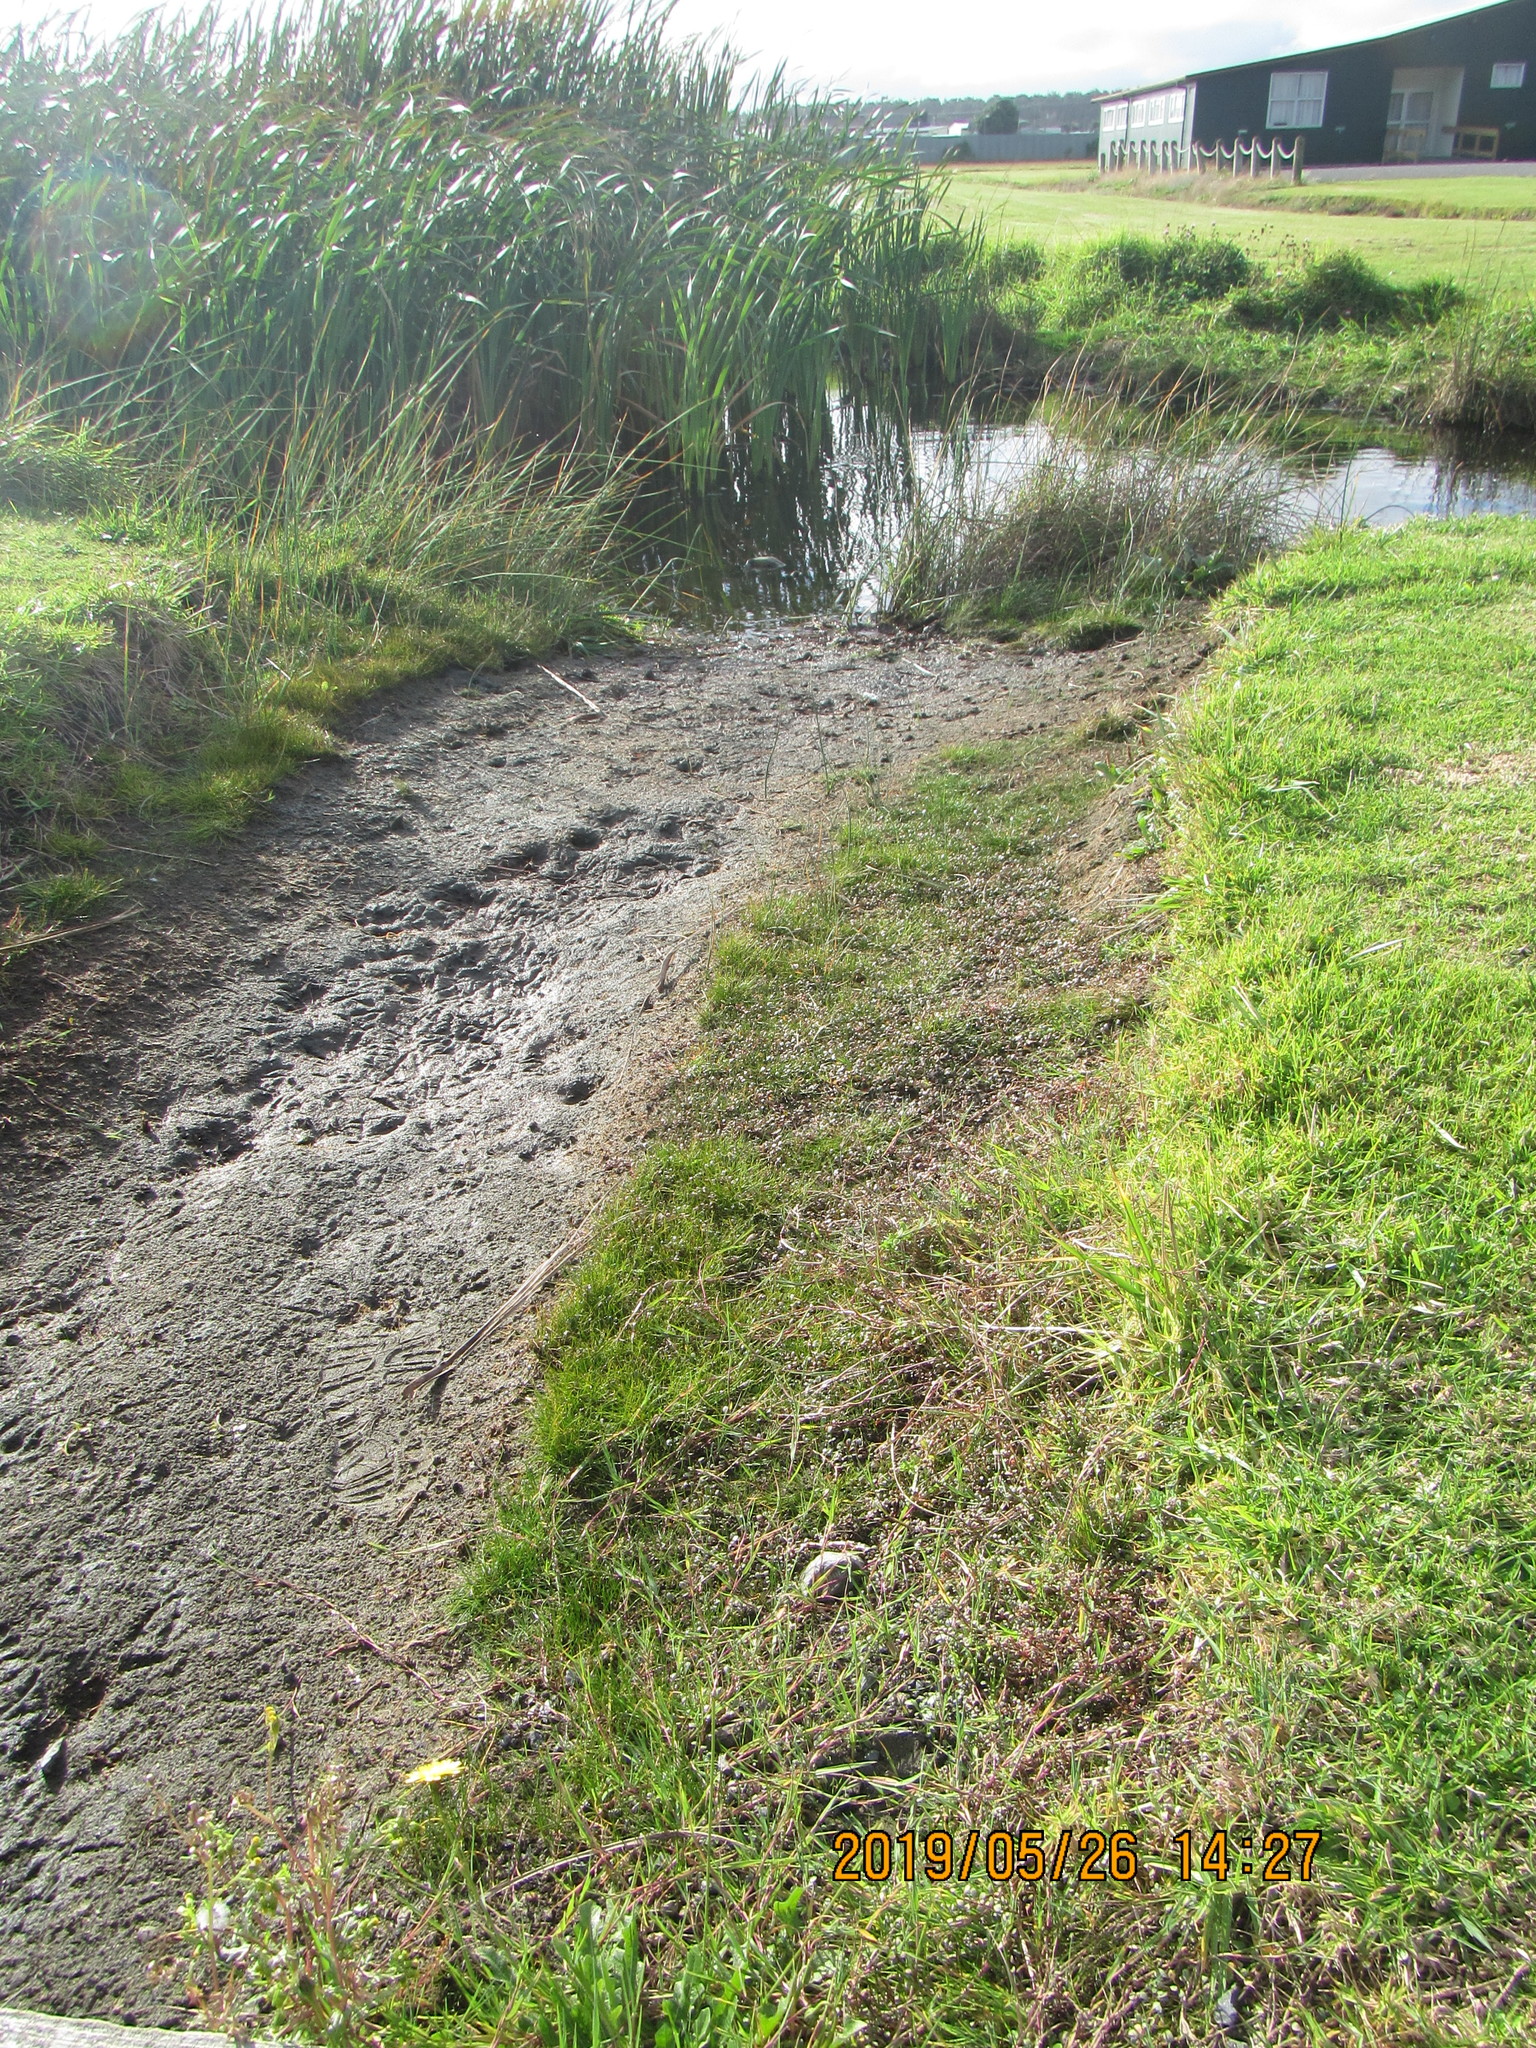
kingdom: Plantae
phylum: Tracheophyta
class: Magnoliopsida
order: Ericales
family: Primulaceae
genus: Lysimachia
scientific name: Lysimachia arvensis
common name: Scarlet pimpernel
